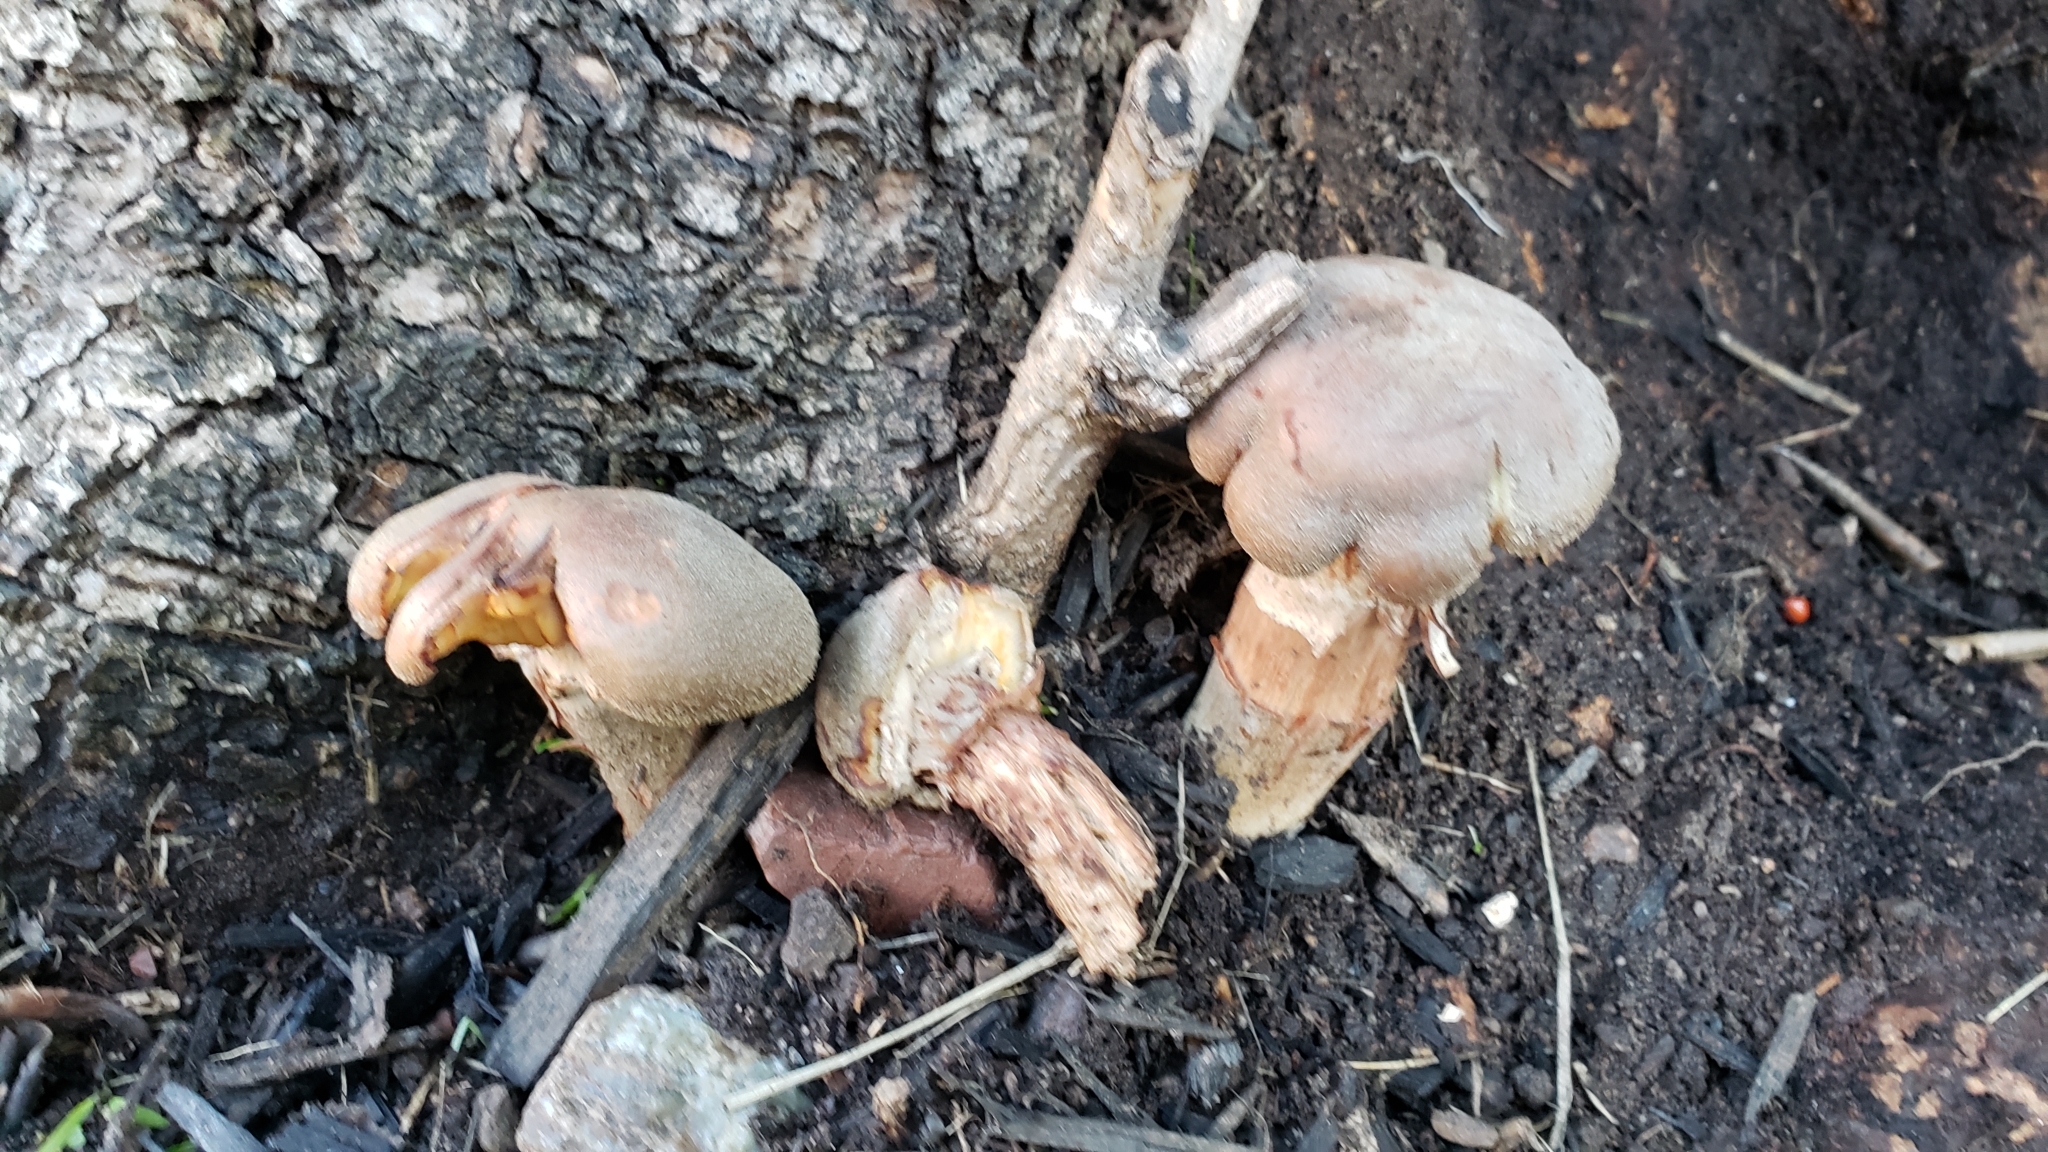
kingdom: Fungi
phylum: Basidiomycota
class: Agaricomycetes
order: Agaricales
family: Physalacriaceae
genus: Armillaria
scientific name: Armillaria mellea
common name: Honey fungus
